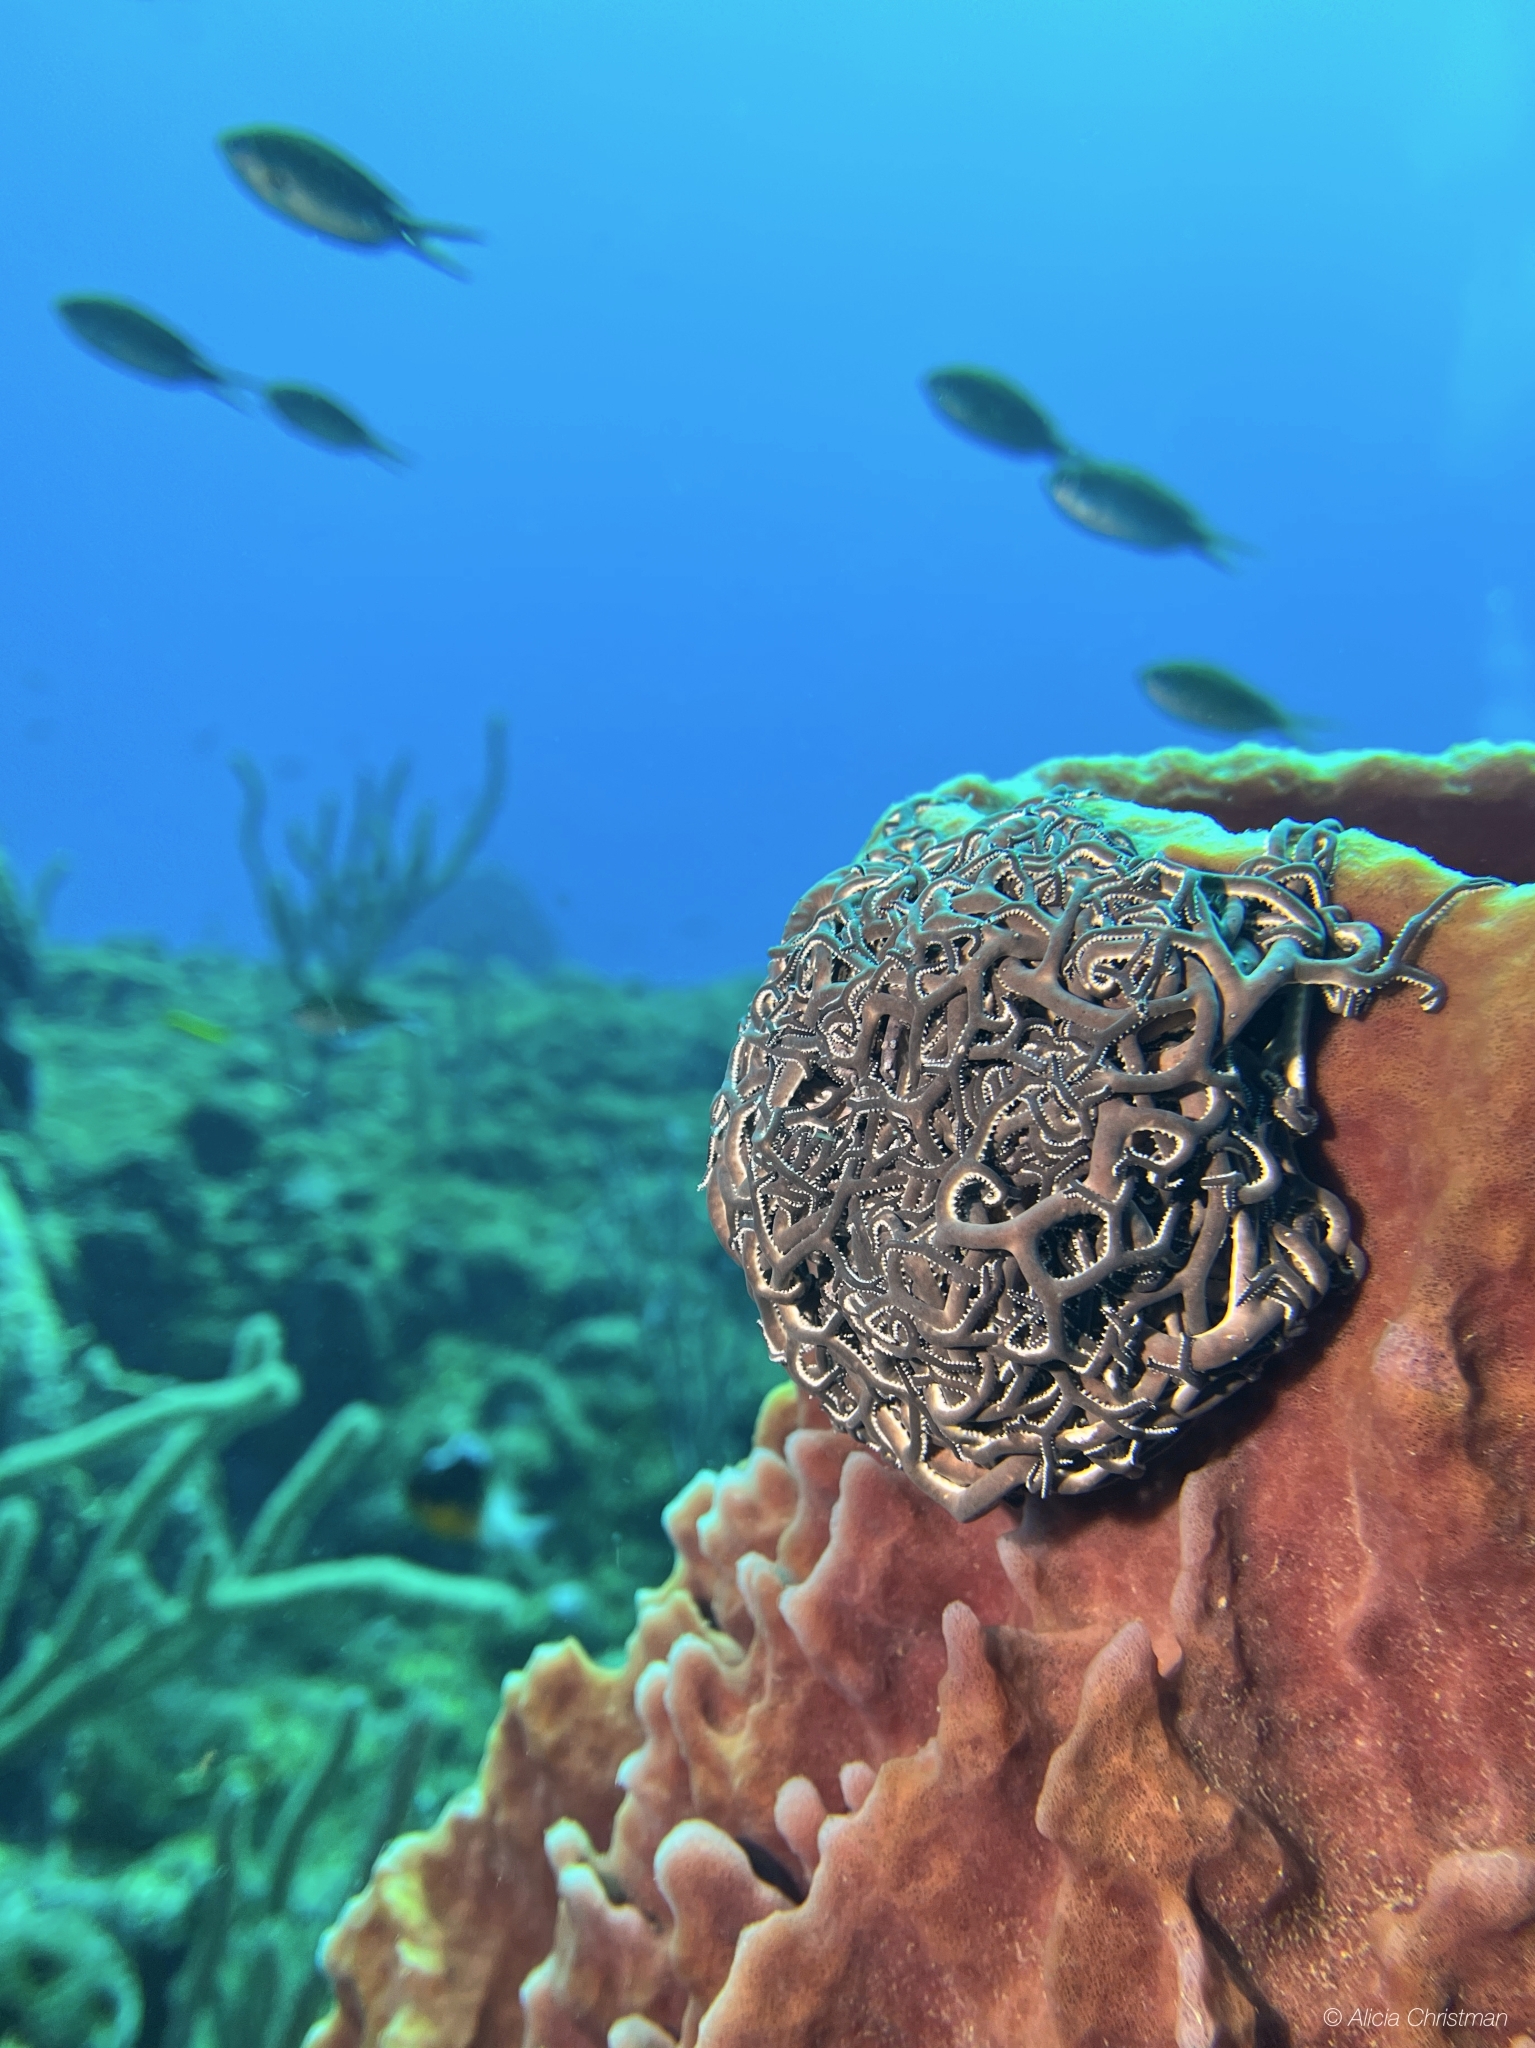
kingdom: Animalia
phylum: Echinodermata
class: Ophiuroidea
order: Euryalida
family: Gorgonocephalidae
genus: Astrophyton
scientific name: Astrophyton muricatum
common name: Basket starfish
